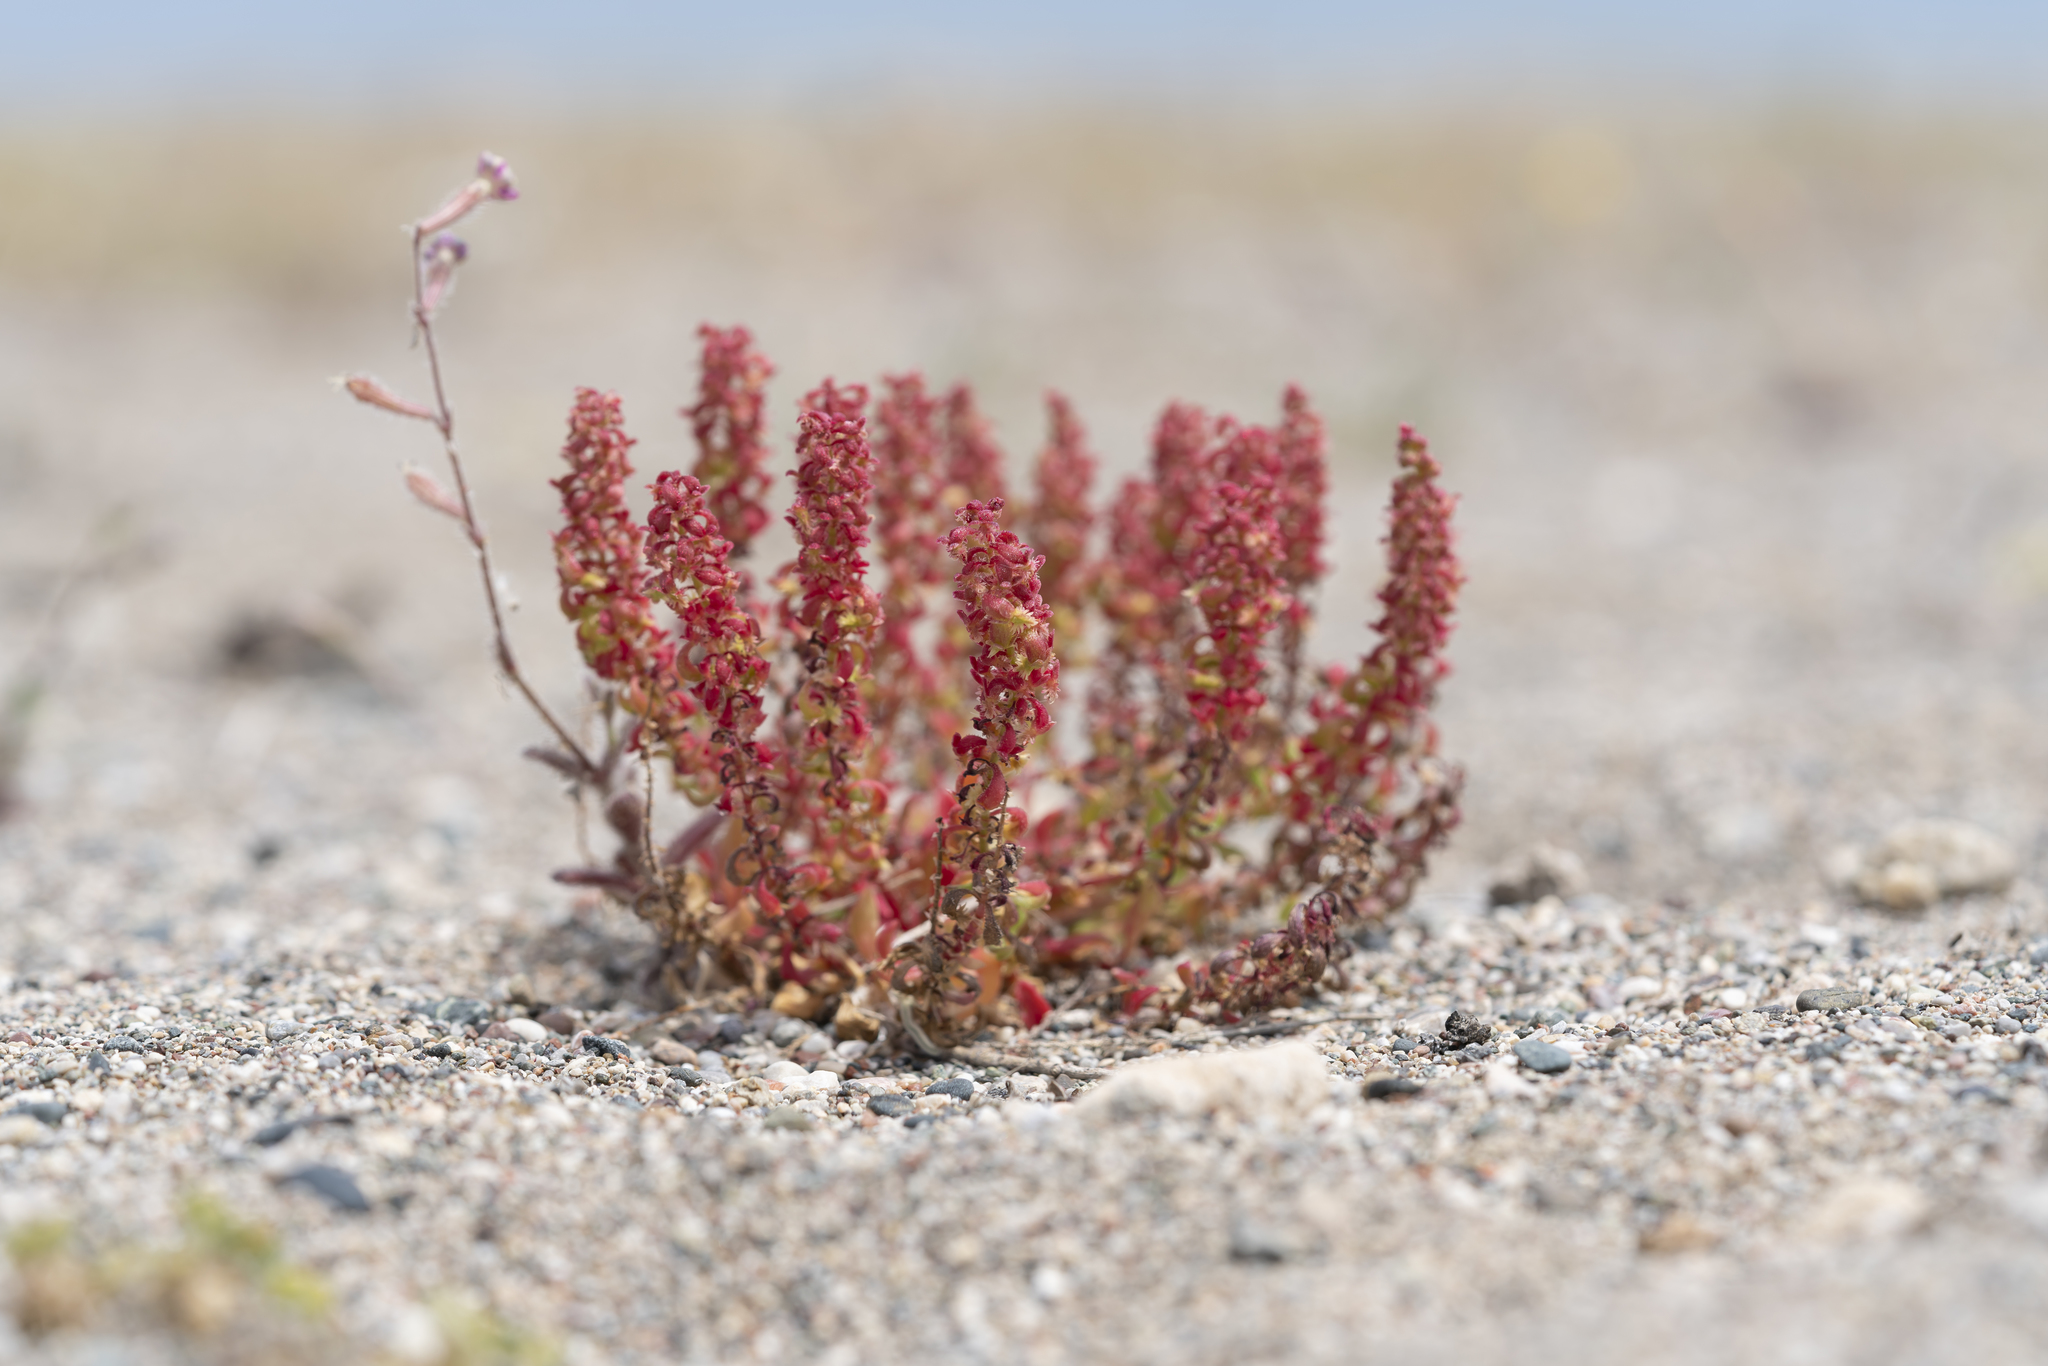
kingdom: Plantae
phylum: Tracheophyta
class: Magnoliopsida
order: Caryophyllales
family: Polygonaceae
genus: Rumex
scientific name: Rumex bucephalophorus
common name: Red dock
